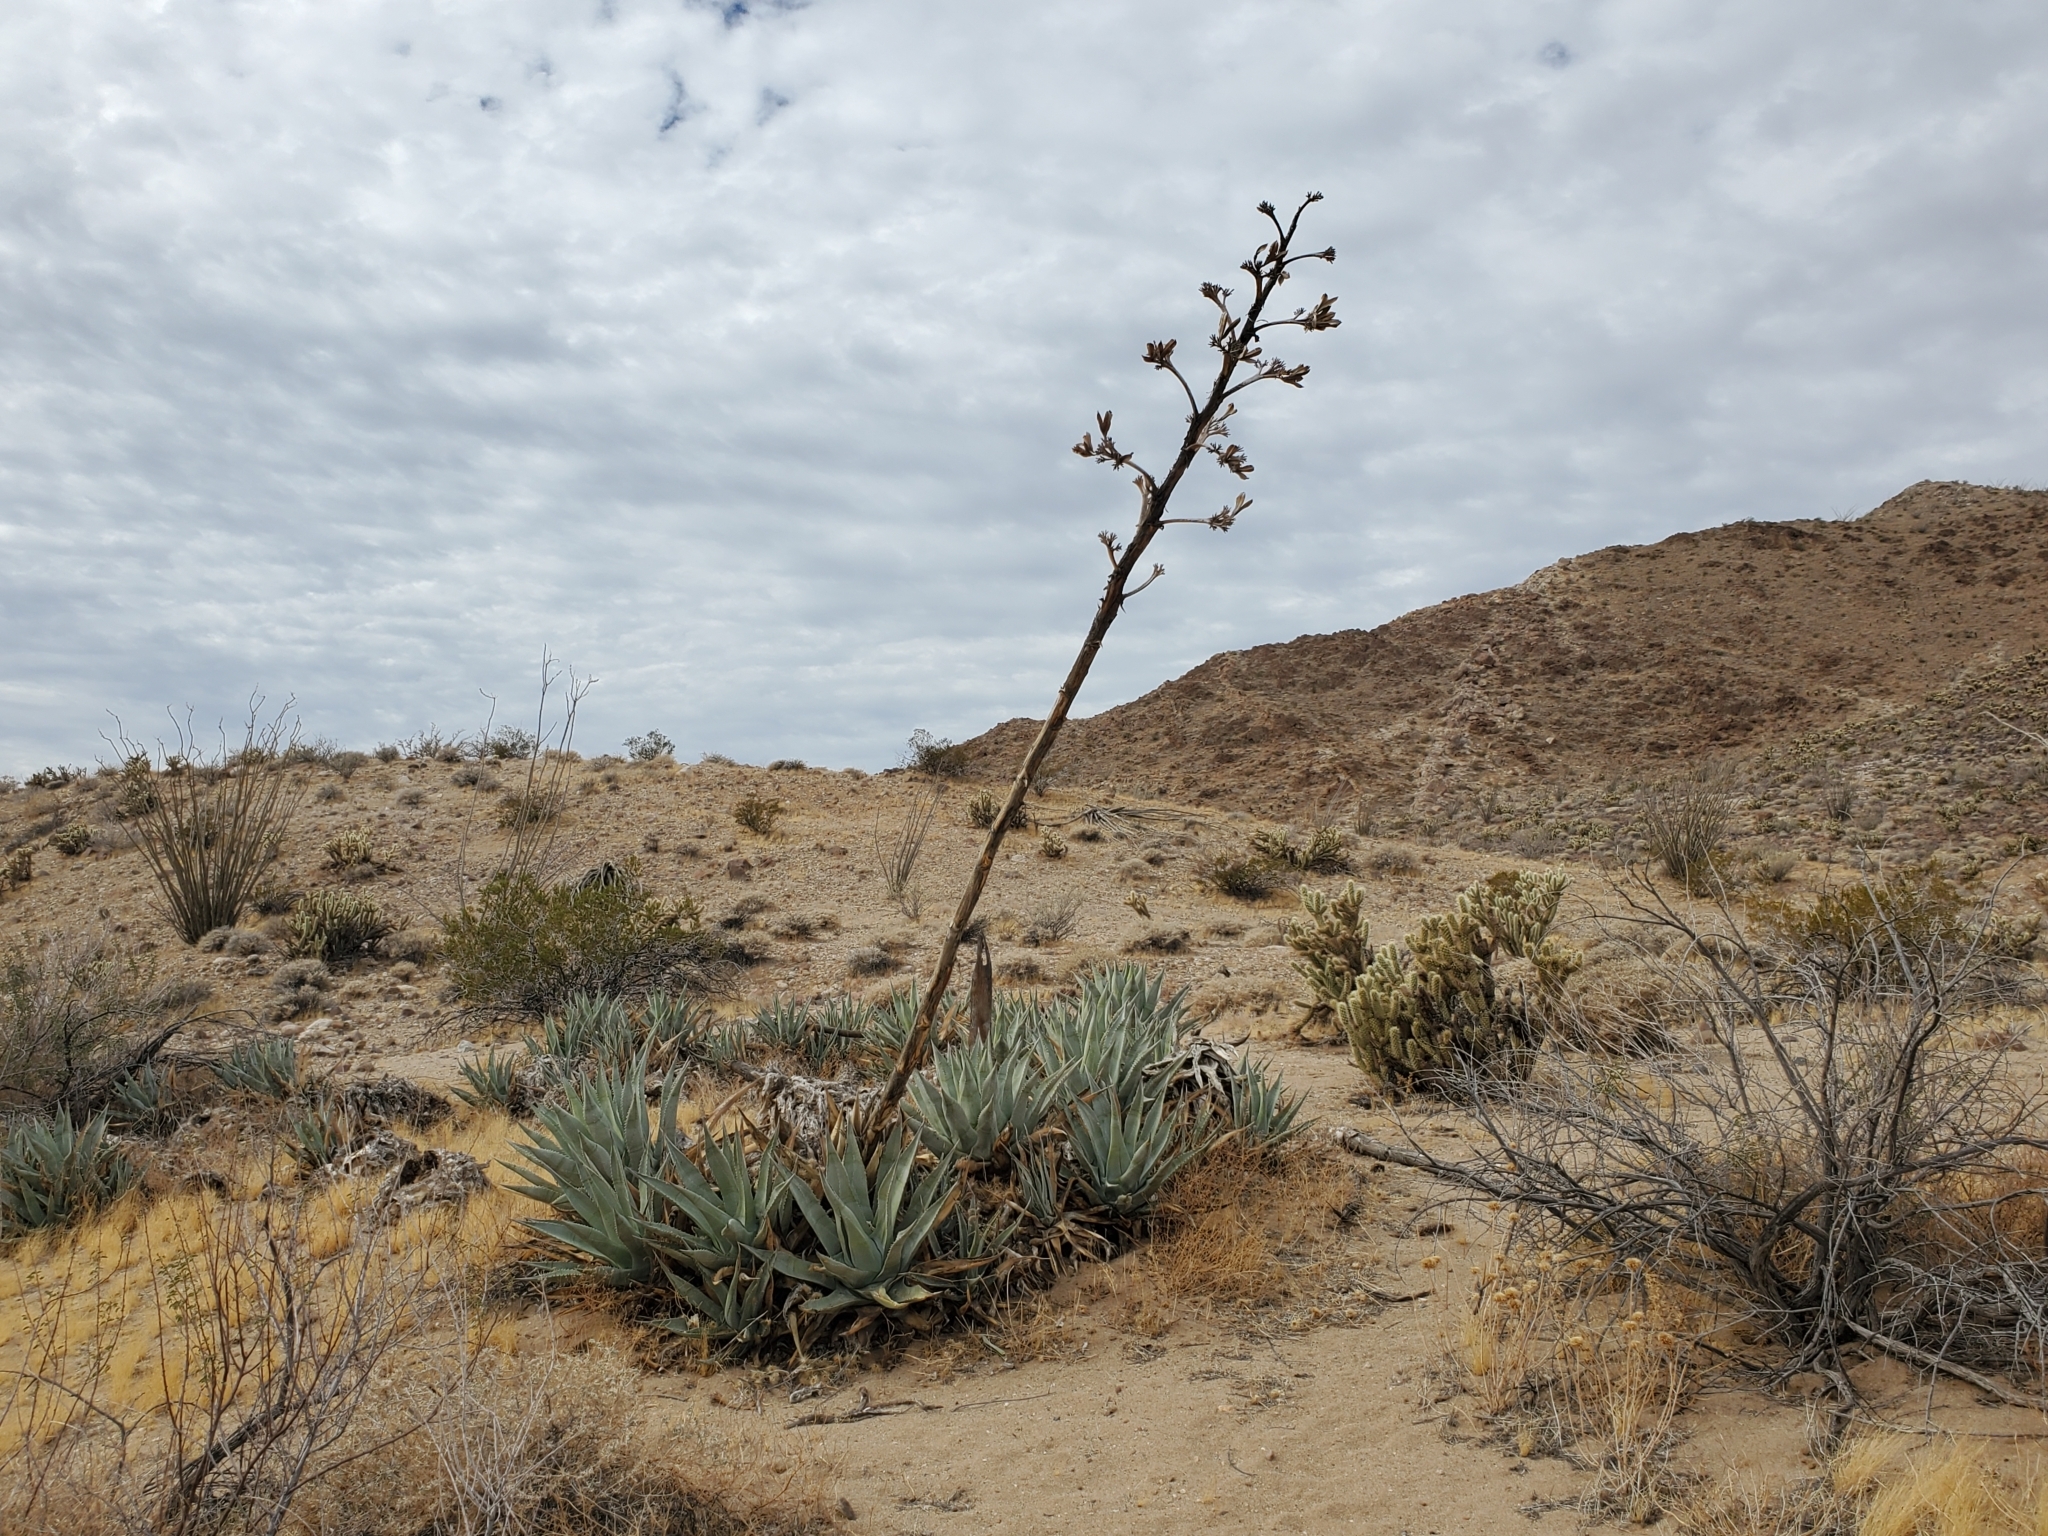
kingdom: Plantae
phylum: Tracheophyta
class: Liliopsida
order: Asparagales
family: Asparagaceae
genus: Agave
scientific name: Agave deserti
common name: Desert agave
